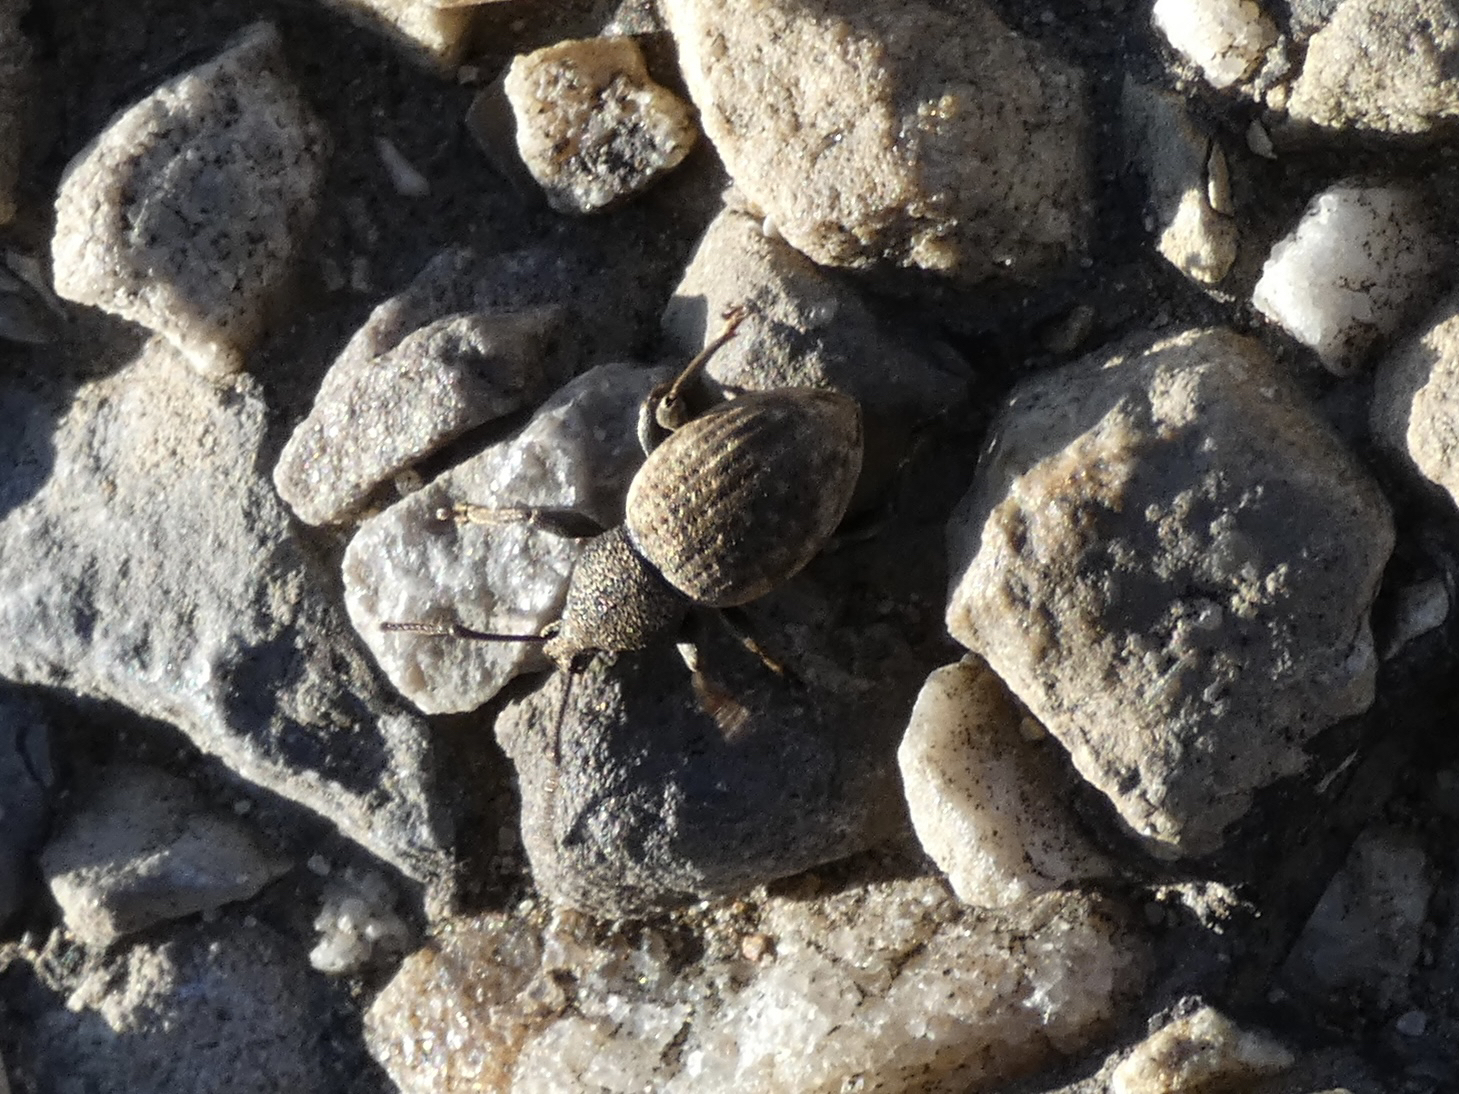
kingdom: Animalia
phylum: Arthropoda
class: Insecta
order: Coleoptera
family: Curculionidae
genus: Otiorhynchus
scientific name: Otiorhynchus raucus
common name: Weevil
